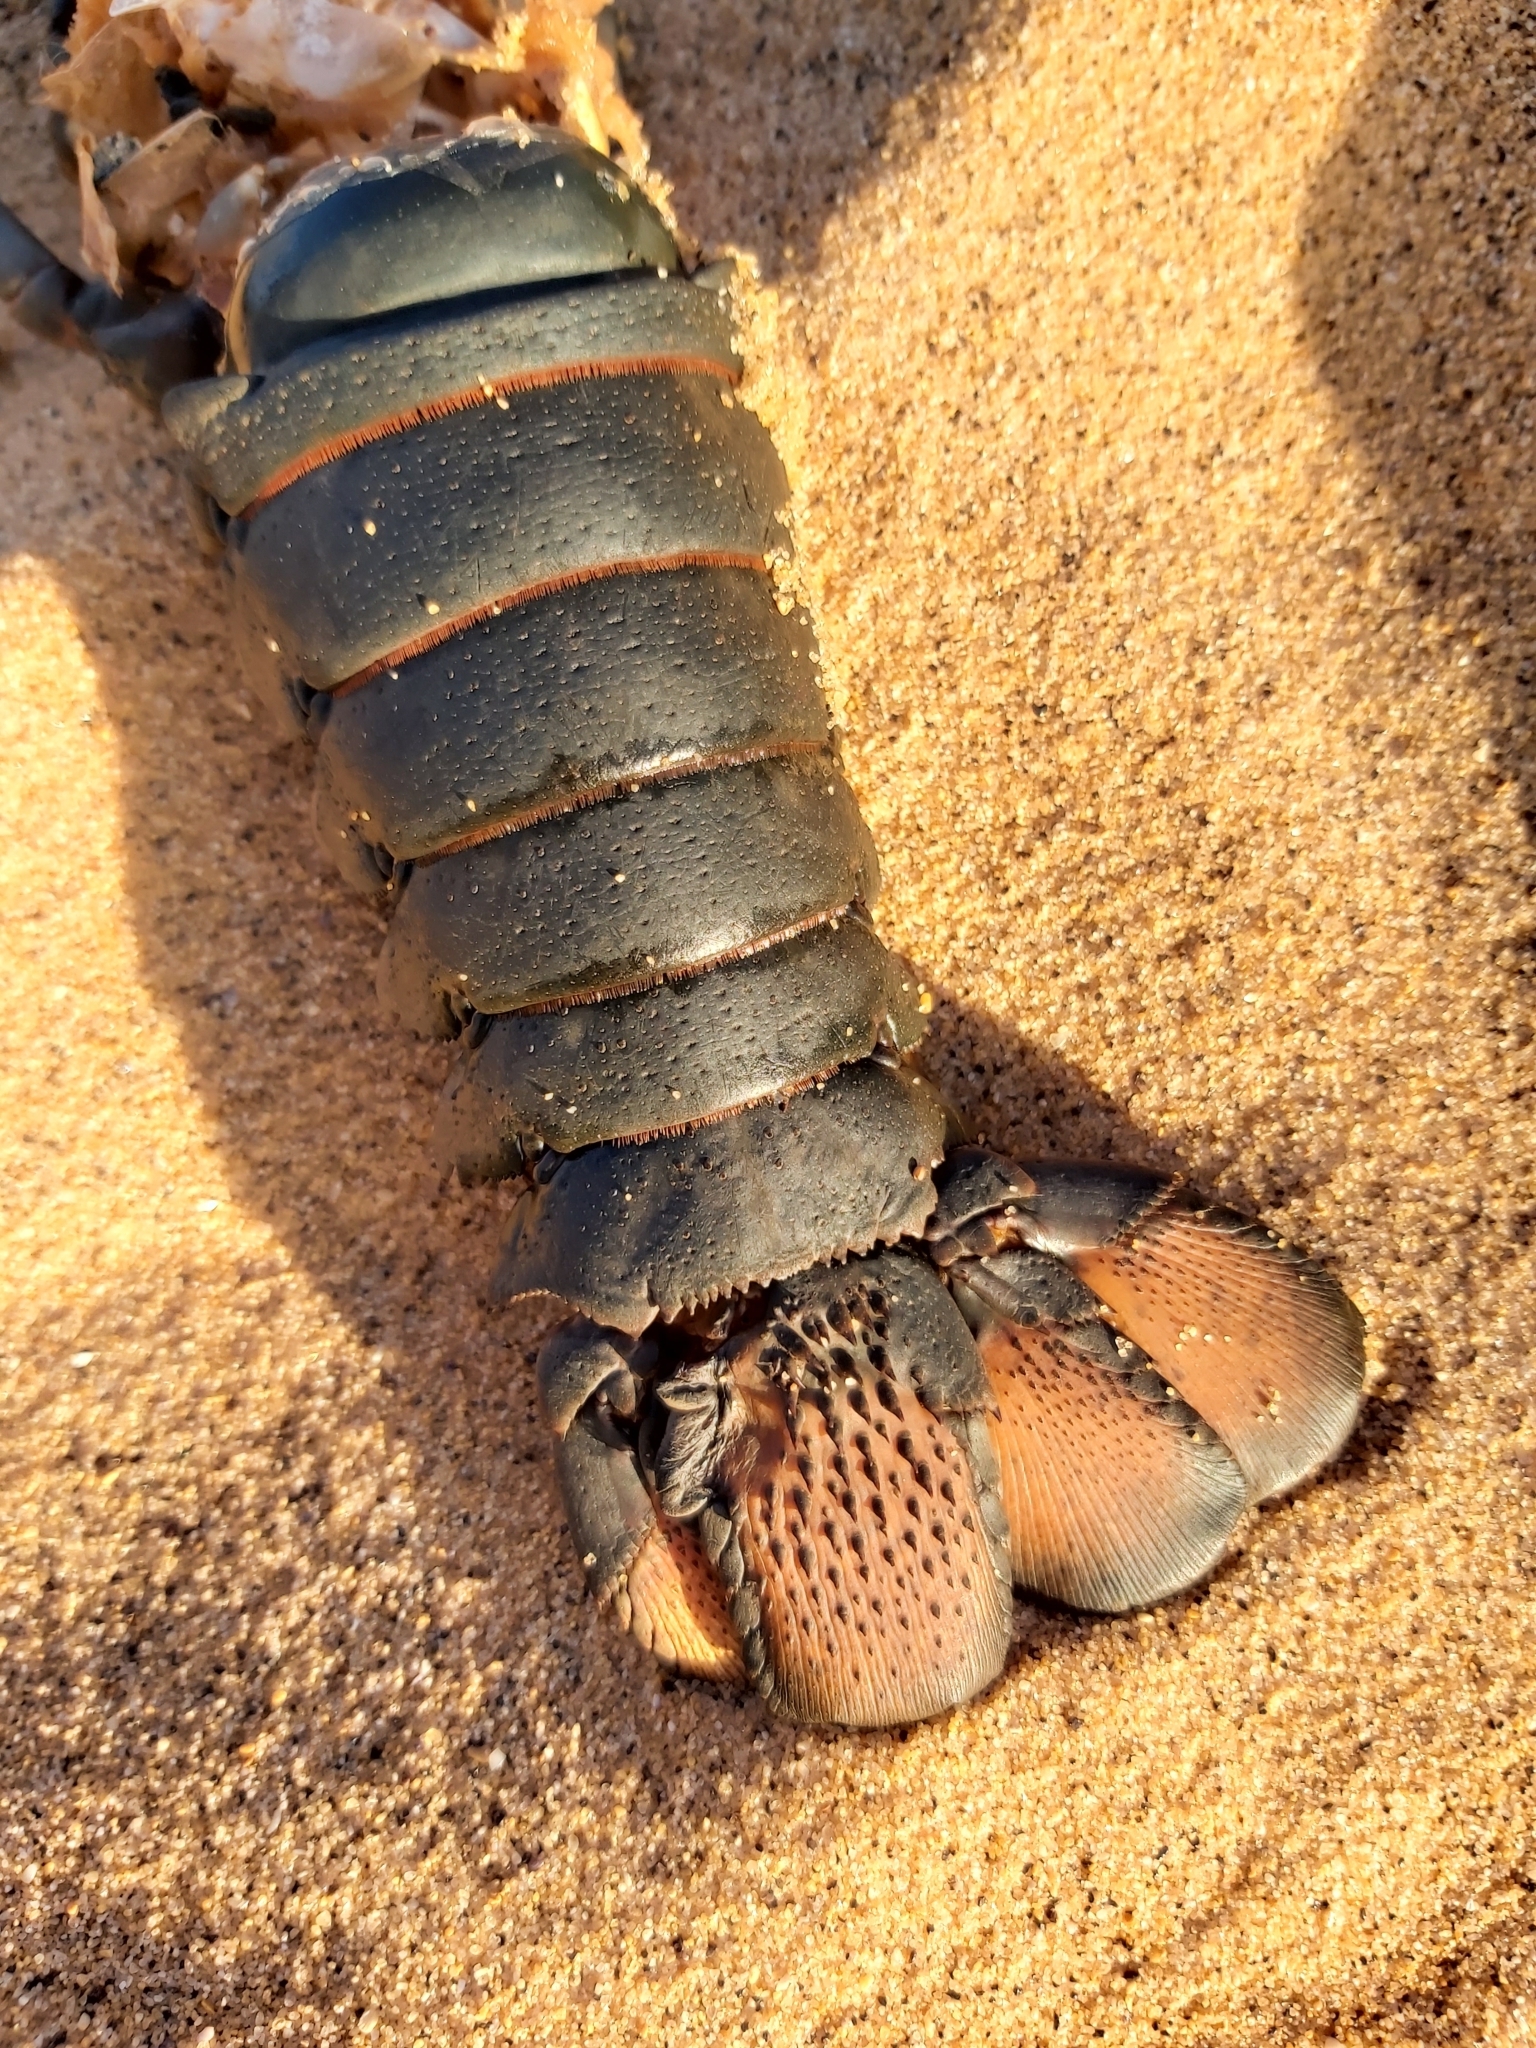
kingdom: Animalia
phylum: Arthropoda
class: Malacostraca
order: Decapoda
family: Palinuridae
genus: Sagmariasus
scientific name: Sagmariasus verreauxi
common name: Green rock lobster
